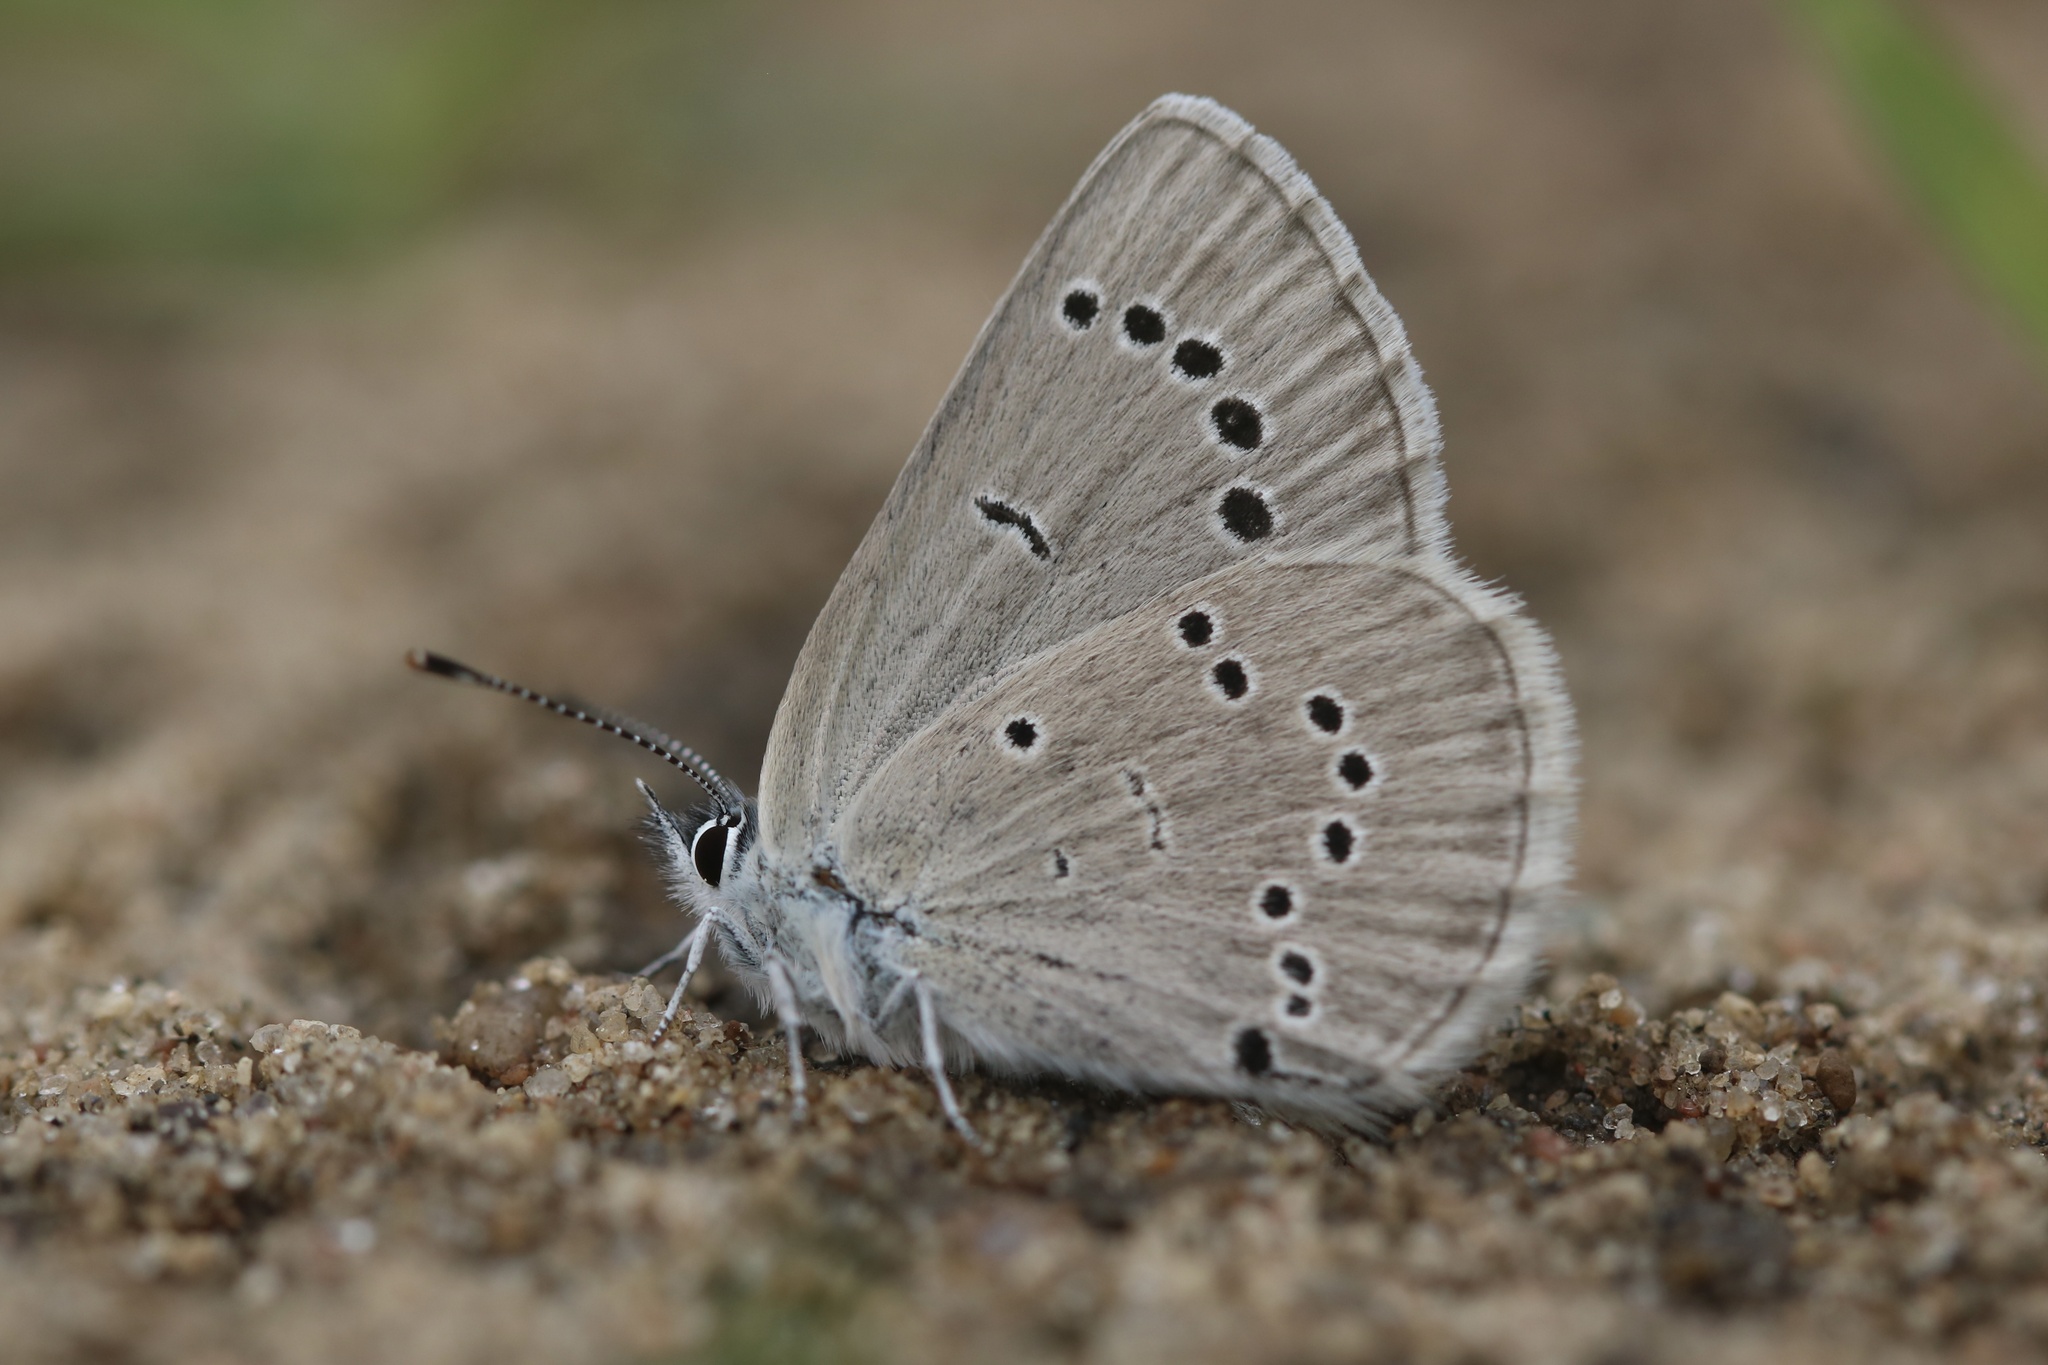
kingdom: Animalia
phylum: Arthropoda
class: Insecta
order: Lepidoptera
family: Lycaenidae
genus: Glaucopsyche
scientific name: Glaucopsyche lygdamus
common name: Silvery blue
